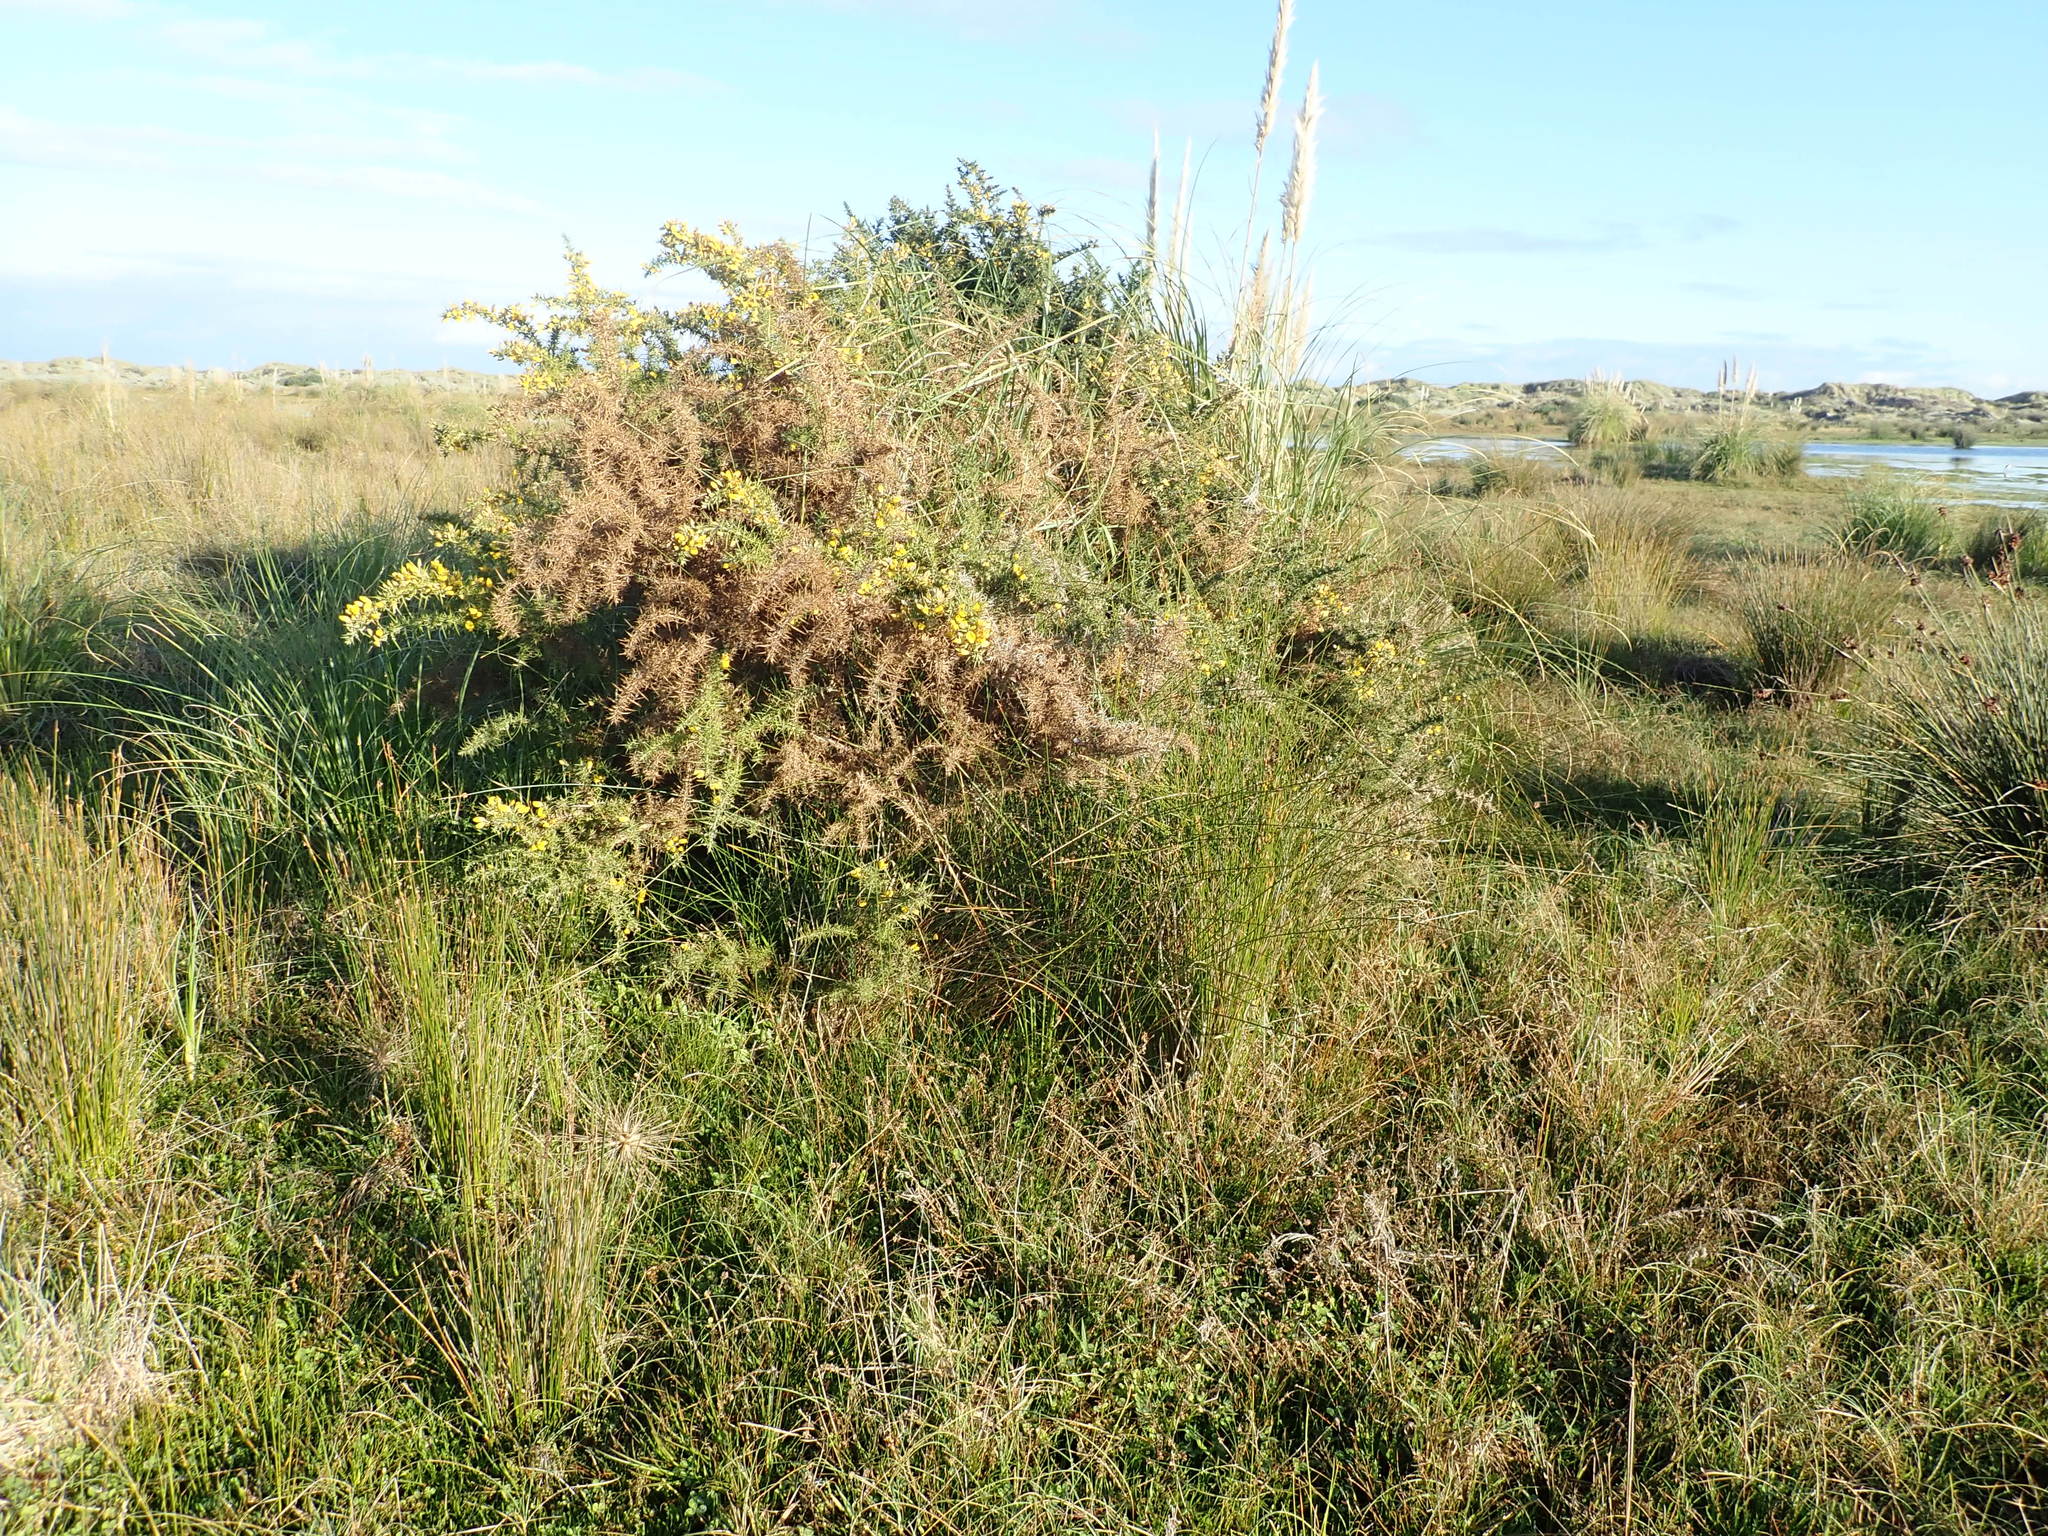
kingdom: Plantae
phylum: Tracheophyta
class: Magnoliopsida
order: Fabales
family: Fabaceae
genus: Ulex
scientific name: Ulex europaeus
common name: Common gorse
